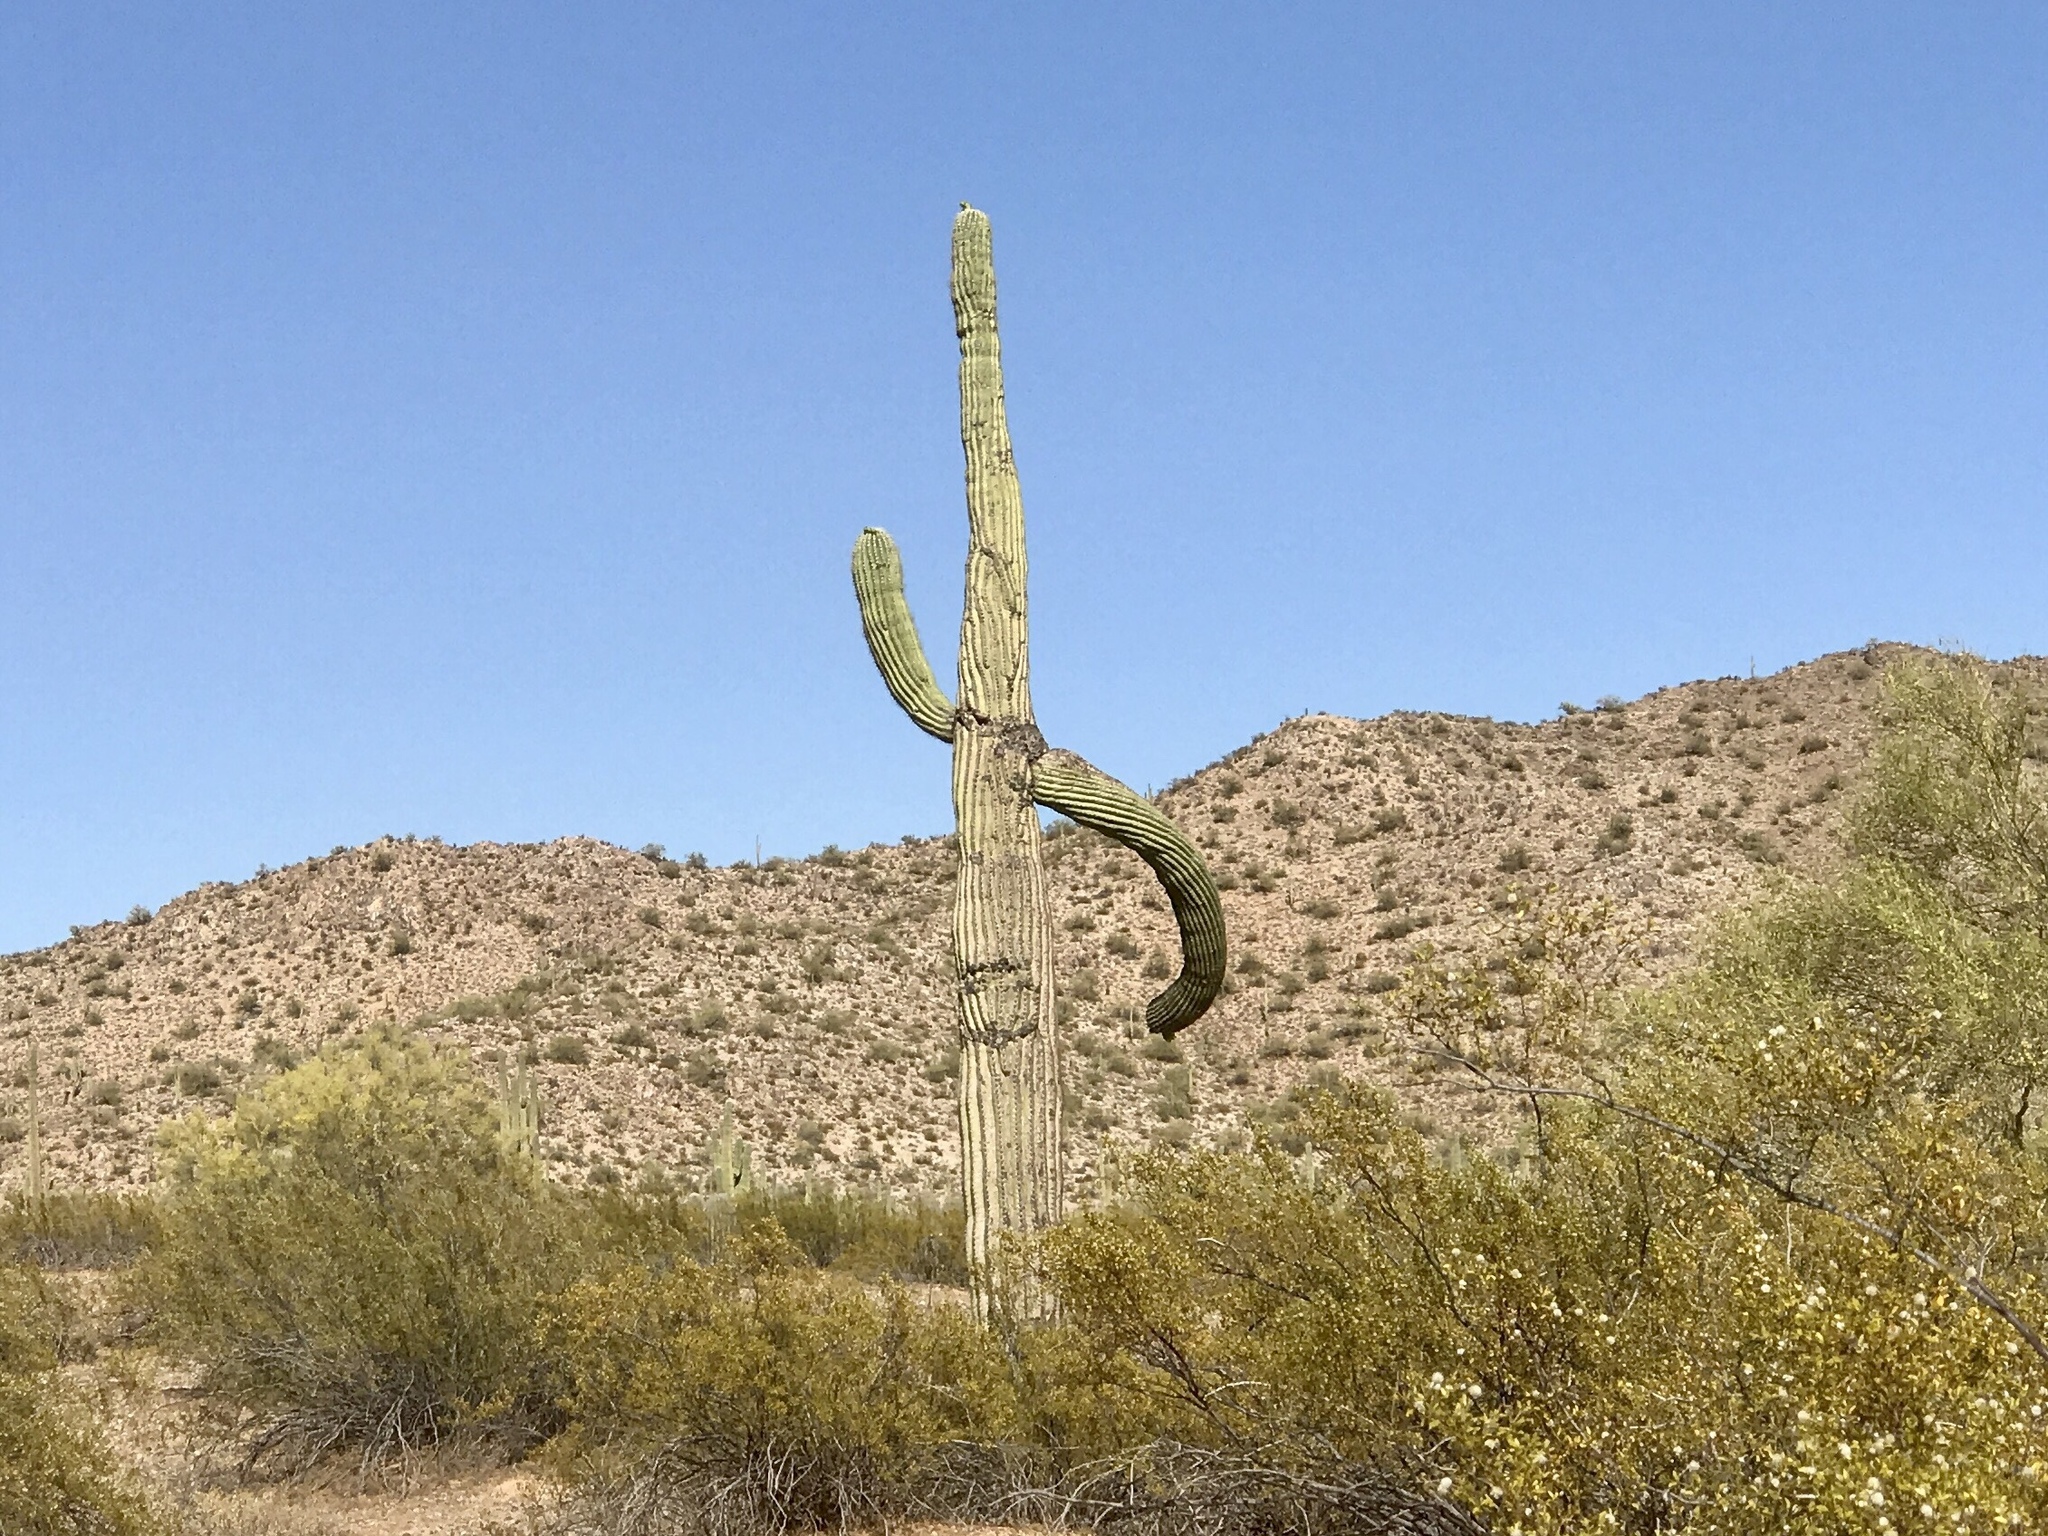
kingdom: Plantae
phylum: Tracheophyta
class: Magnoliopsida
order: Caryophyllales
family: Cactaceae
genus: Carnegiea
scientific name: Carnegiea gigantea
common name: Saguaro
